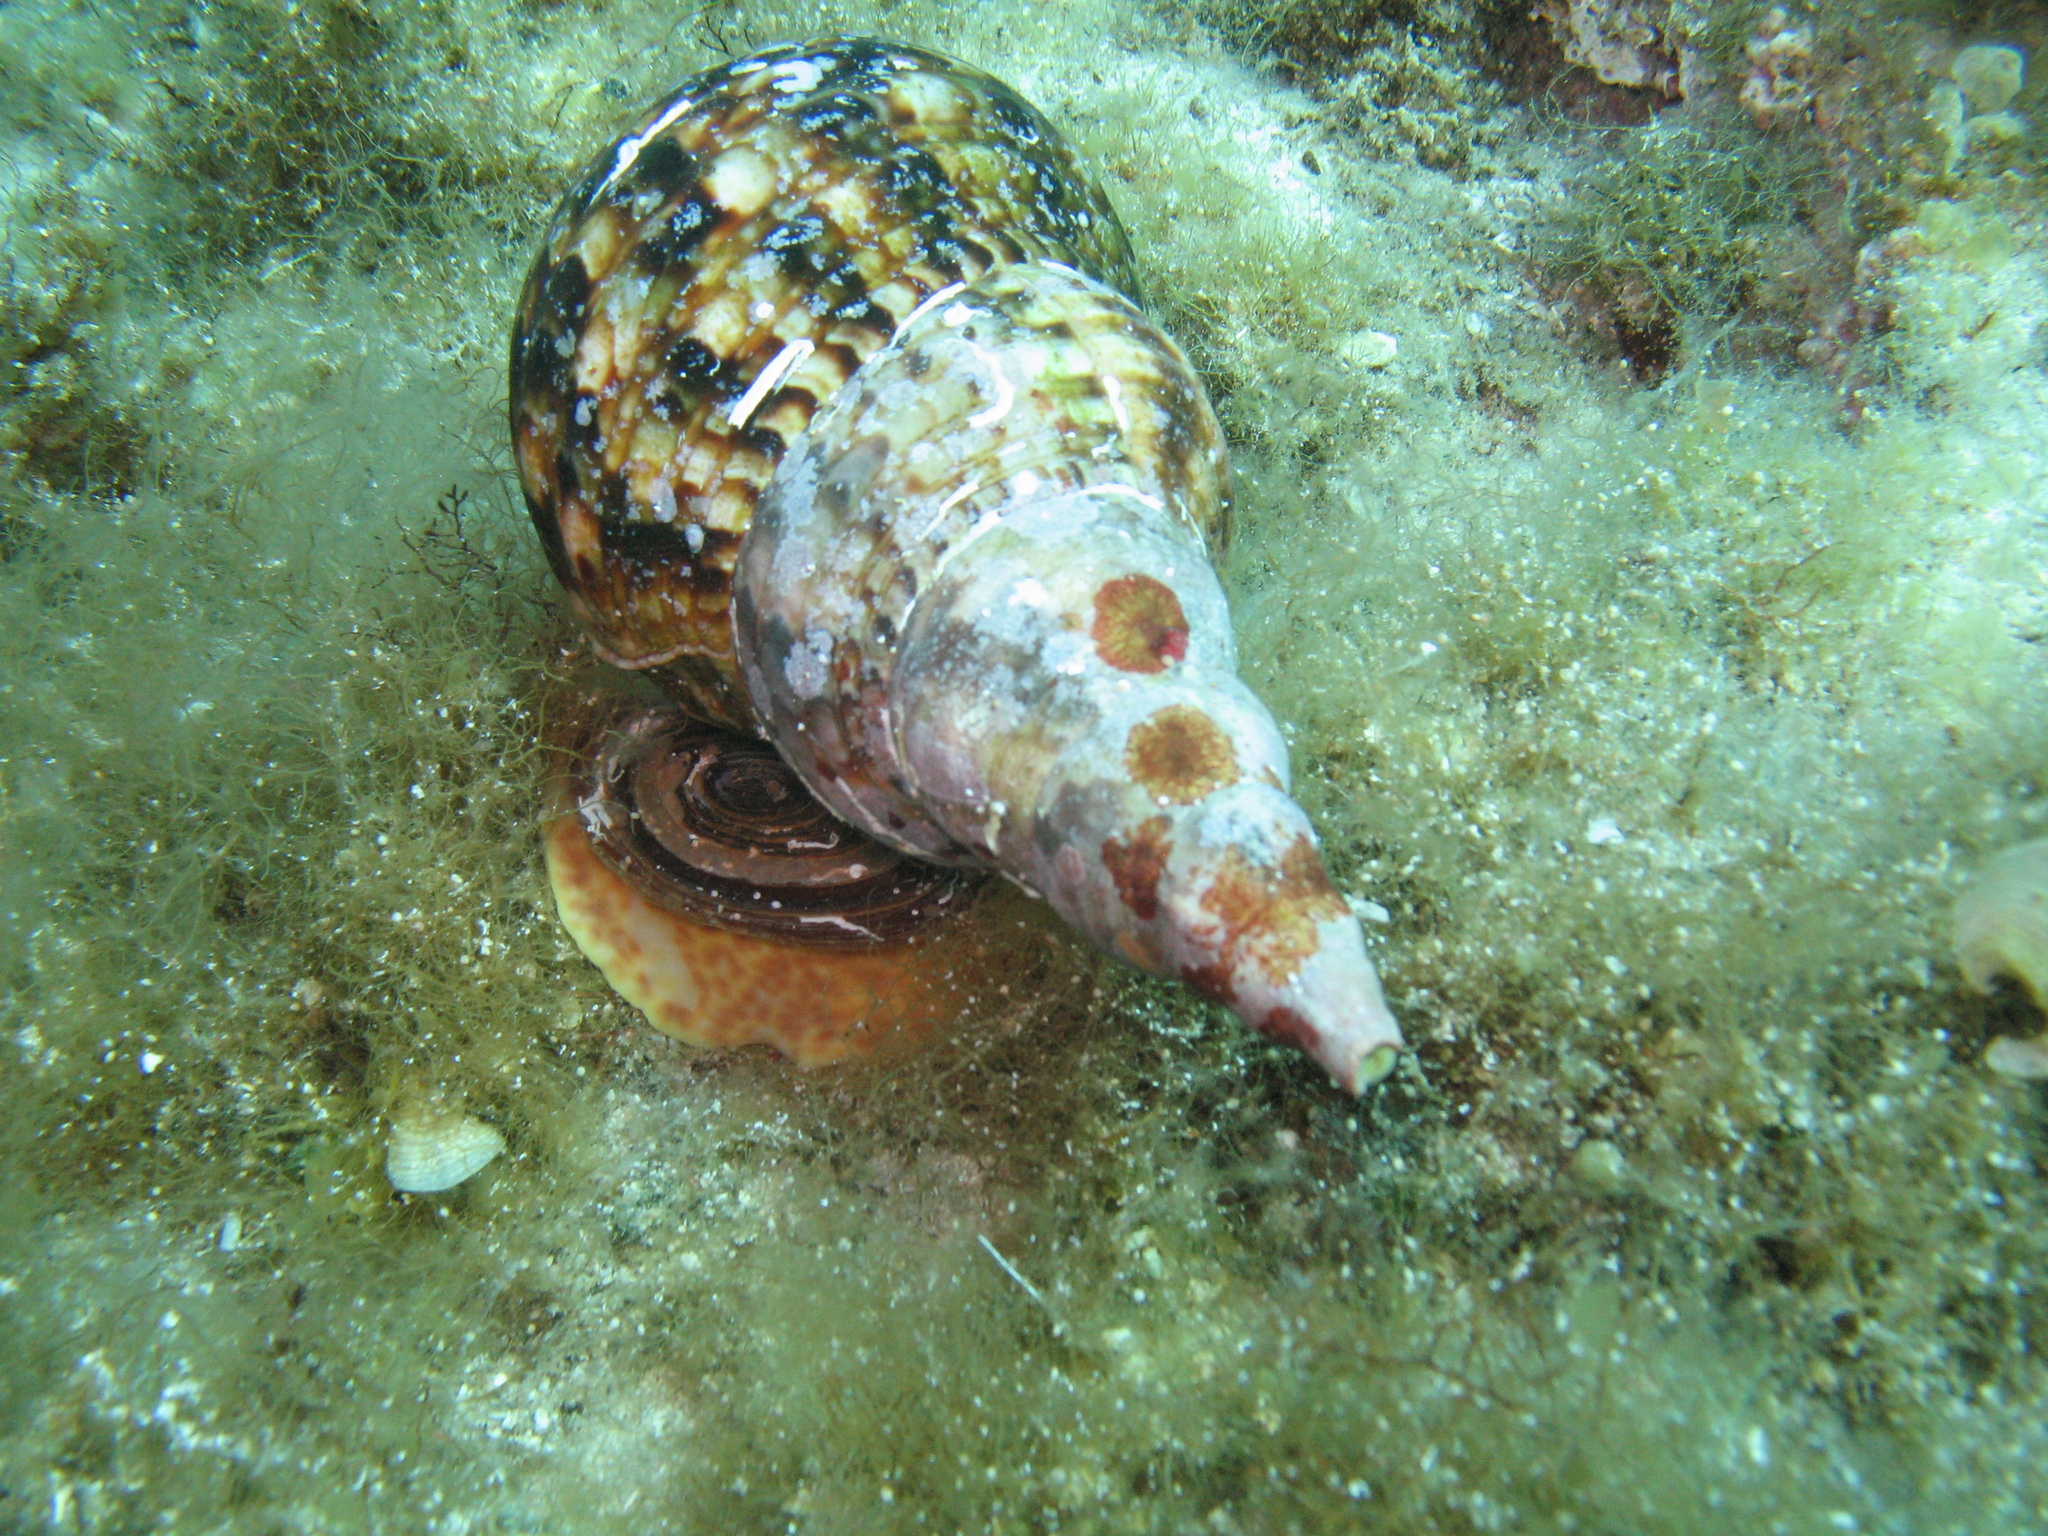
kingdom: Animalia
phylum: Mollusca
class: Gastropoda
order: Littorinimorpha
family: Charoniidae
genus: Charonia
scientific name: Charonia variegata
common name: Atlantic triton
